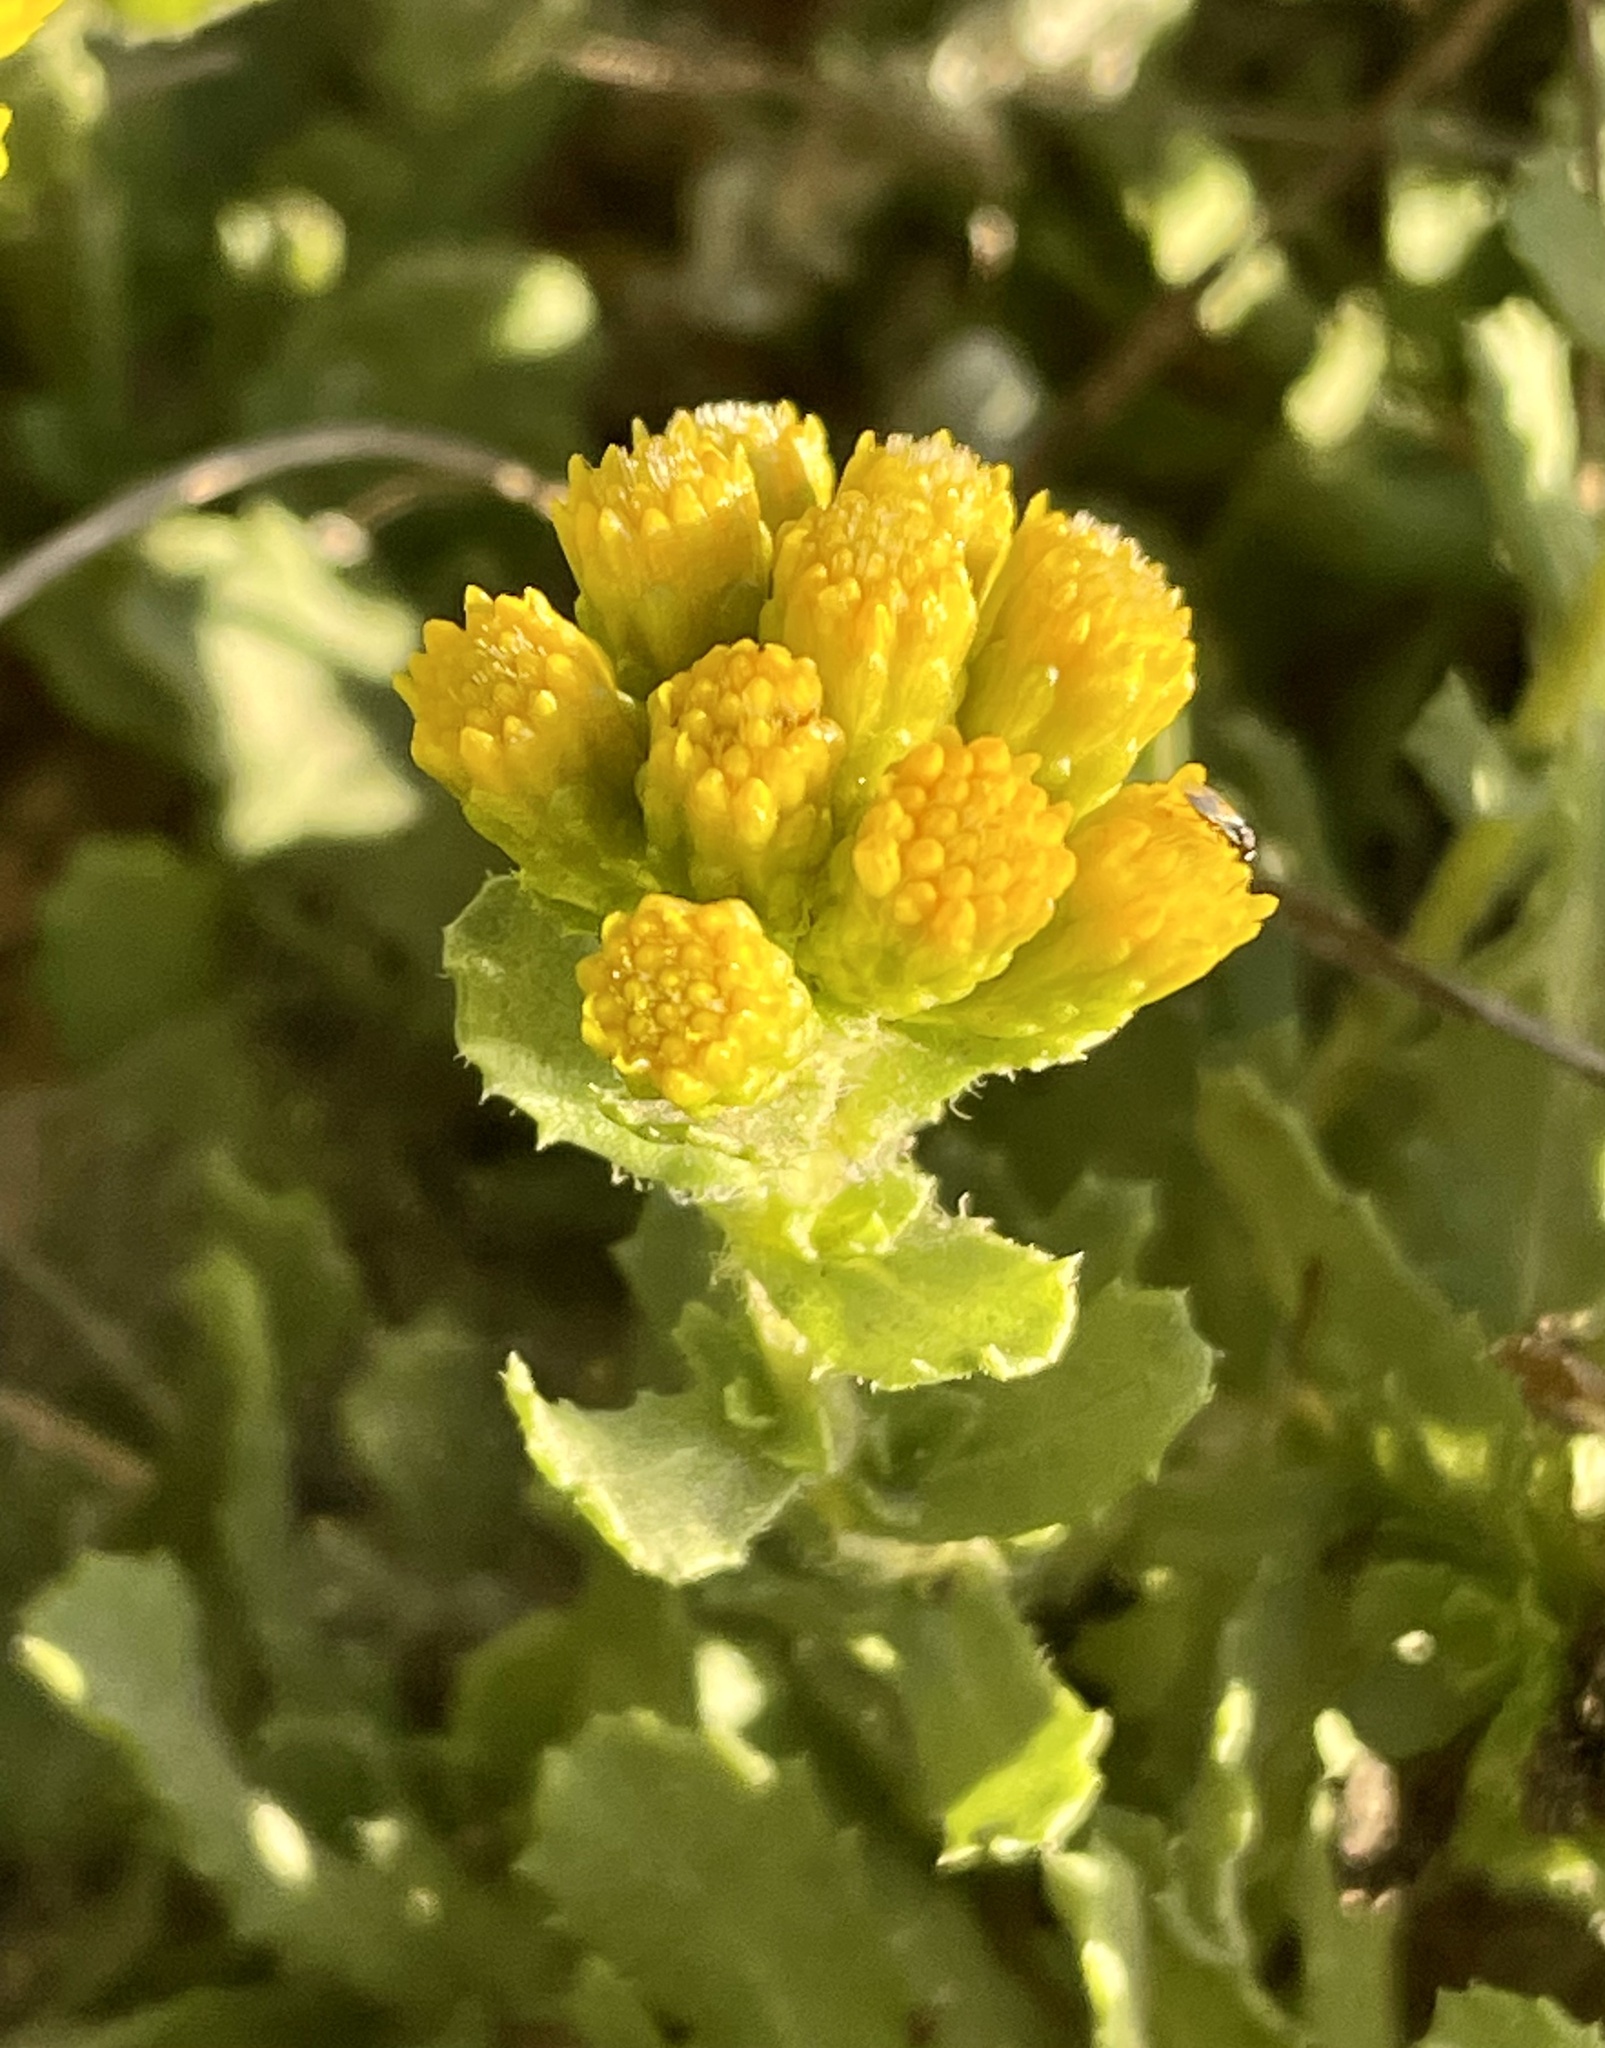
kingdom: Plantae
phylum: Tracheophyta
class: Magnoliopsida
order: Asterales
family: Asteraceae
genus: Isocoma
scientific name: Isocoma menziesii
